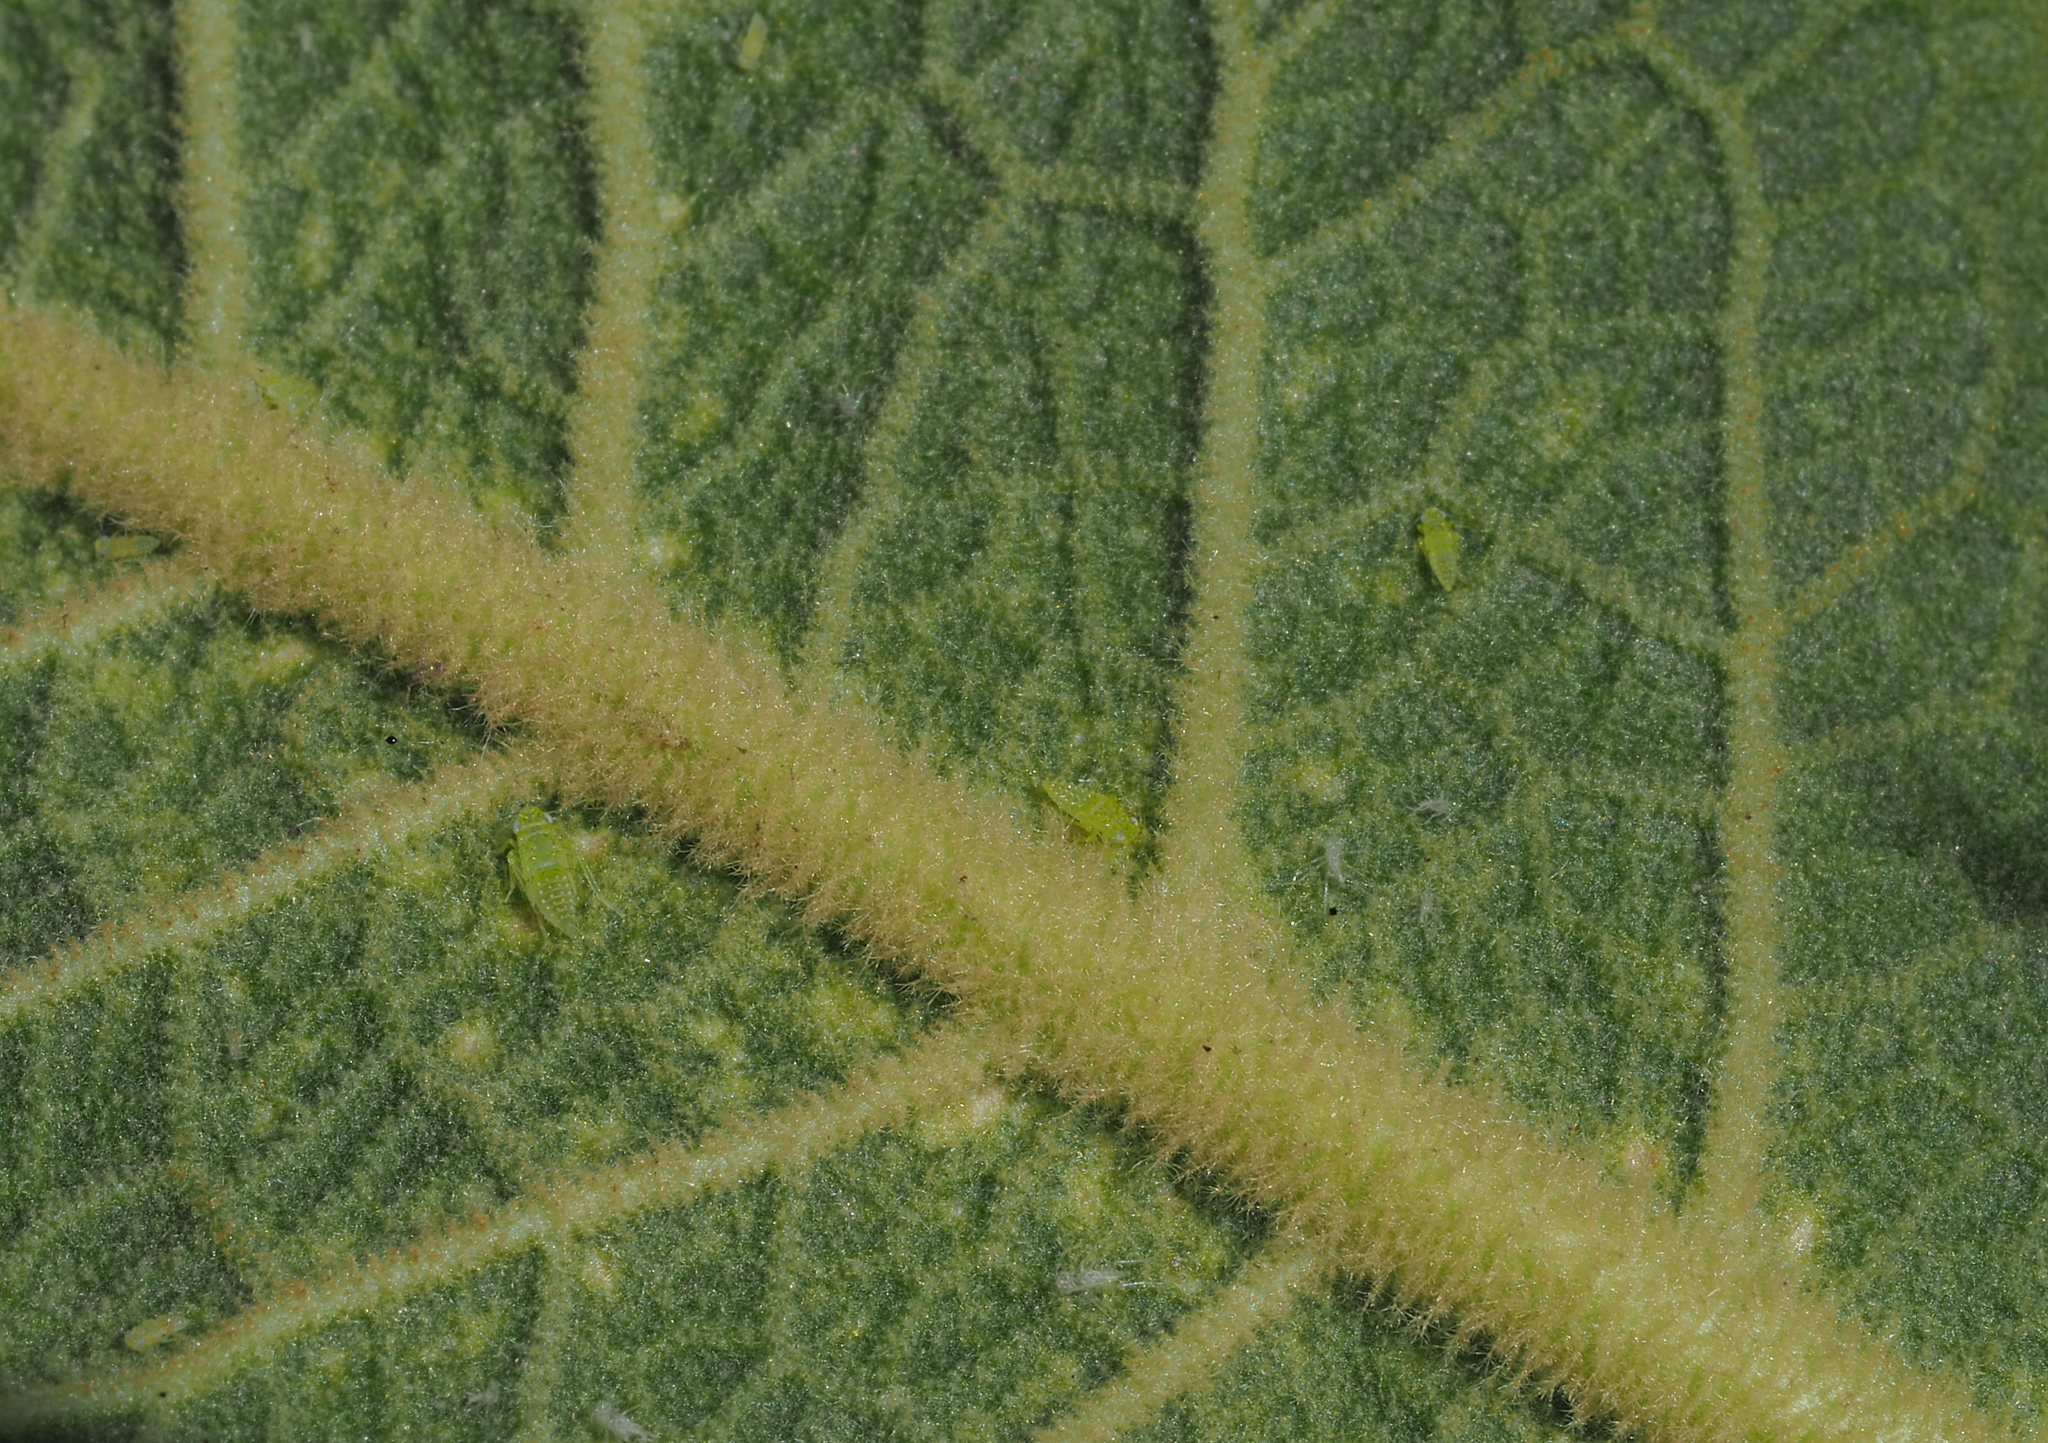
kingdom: Animalia
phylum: Arthropoda
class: Insecta
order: Hemiptera
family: Cicadellidae
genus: Micantulina
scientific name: Micantulina stigmatipennis
